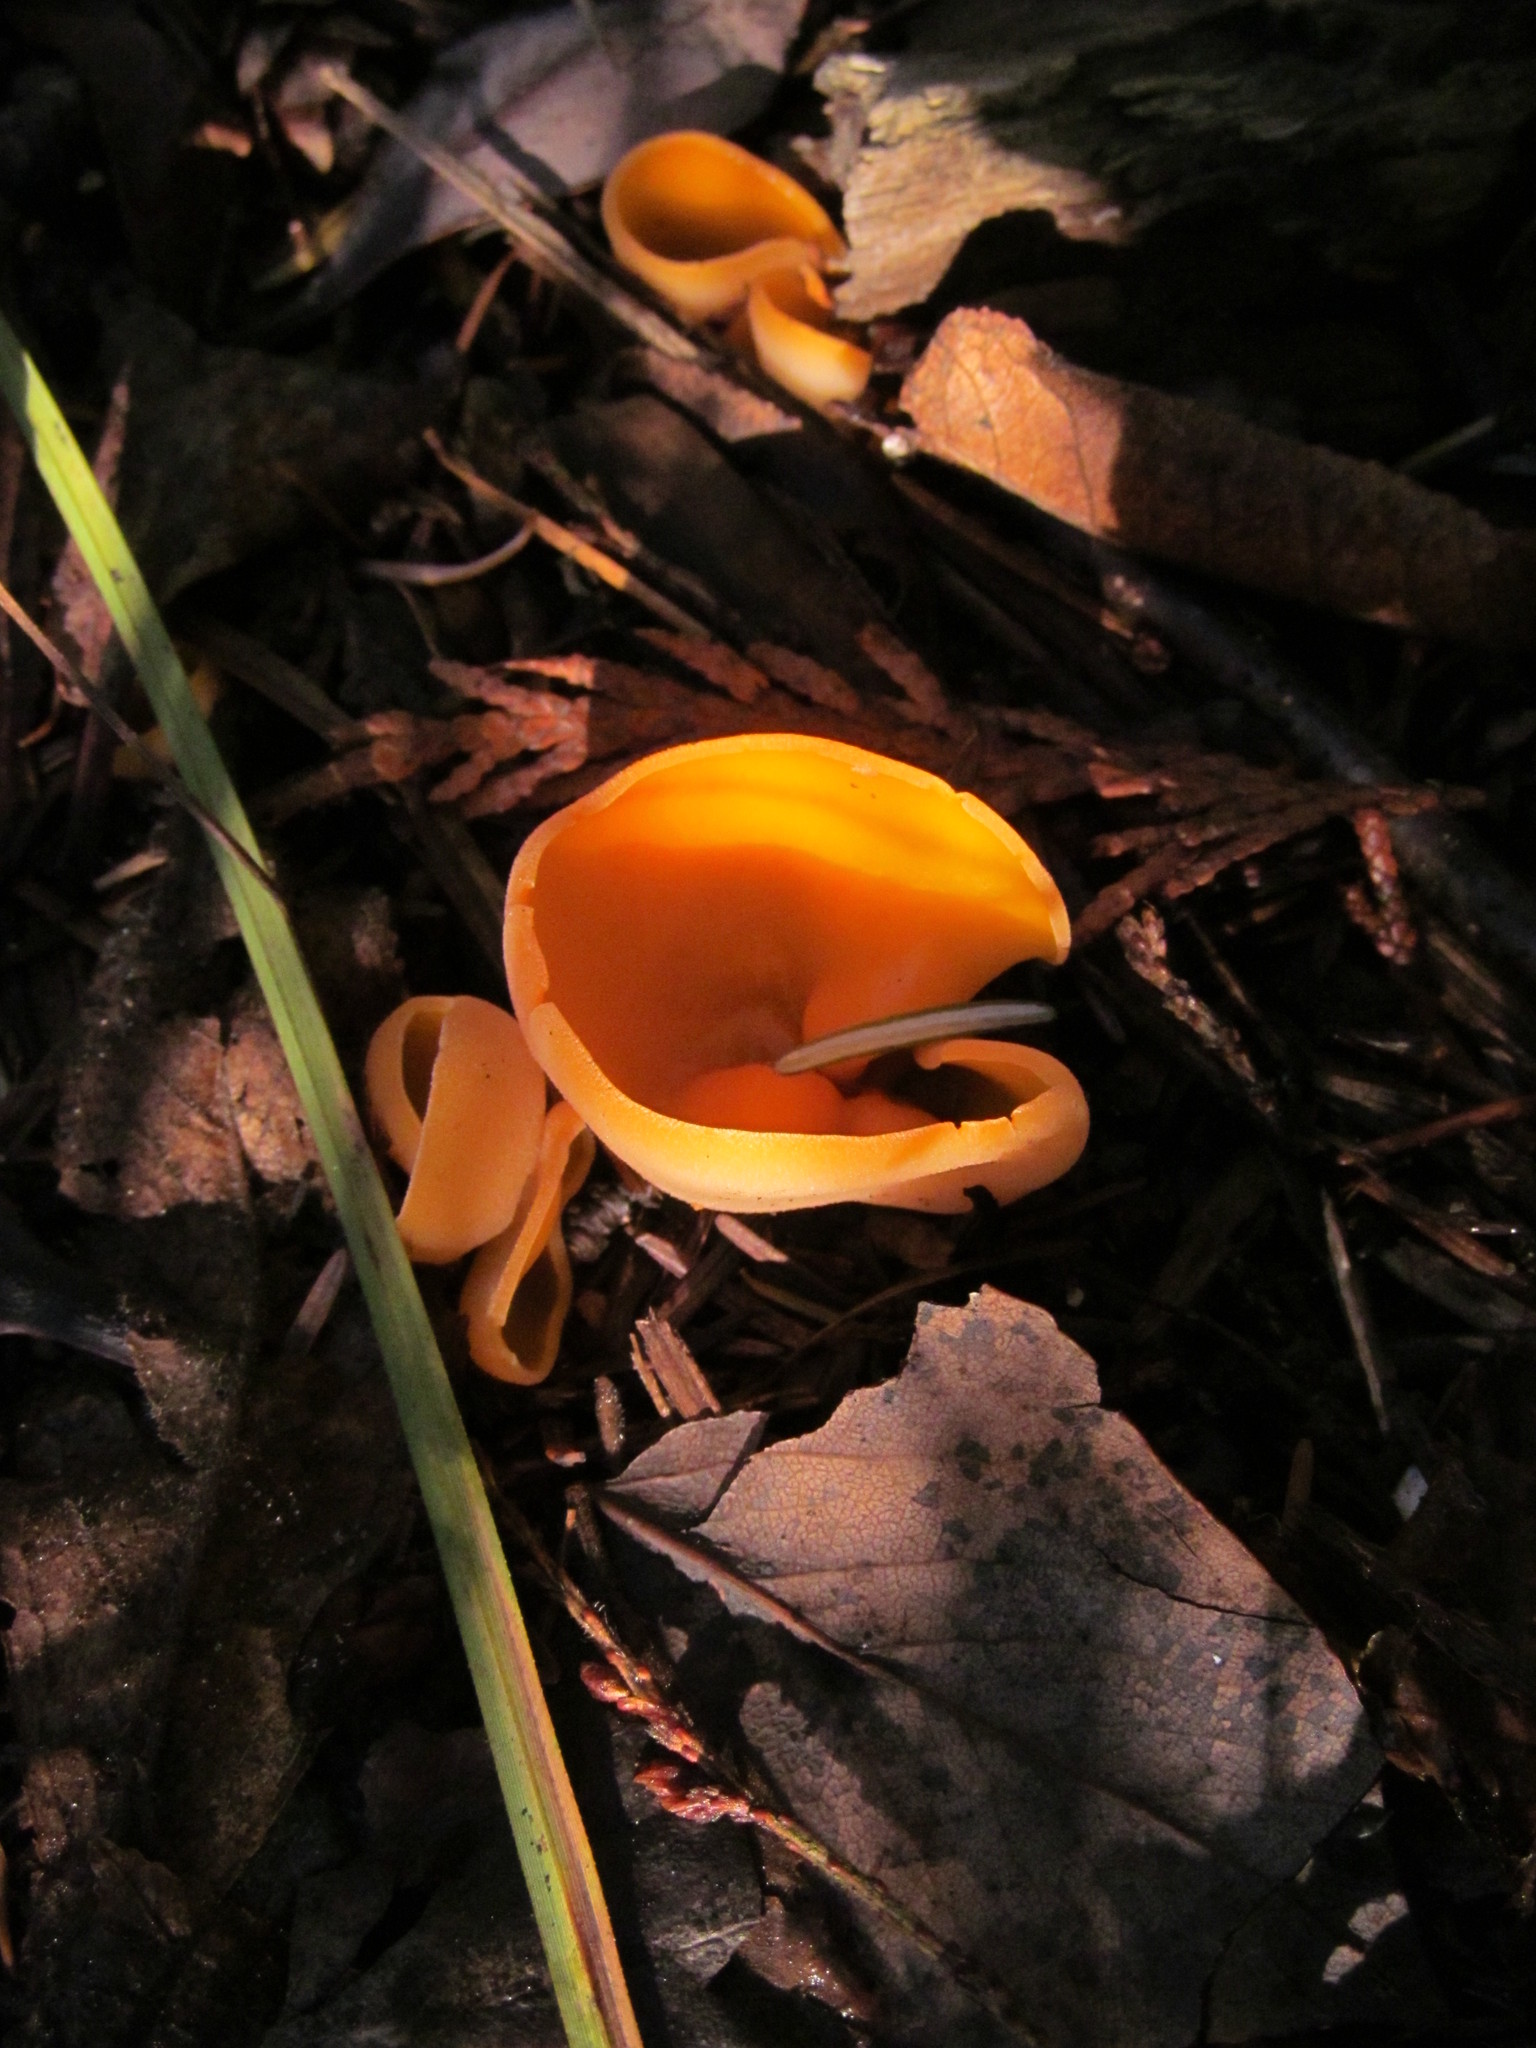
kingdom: Fungi
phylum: Ascomycota
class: Pezizomycetes
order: Pezizales
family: Pyronemataceae
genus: Aleuria
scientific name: Aleuria aurantia
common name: Orange peel fungus
